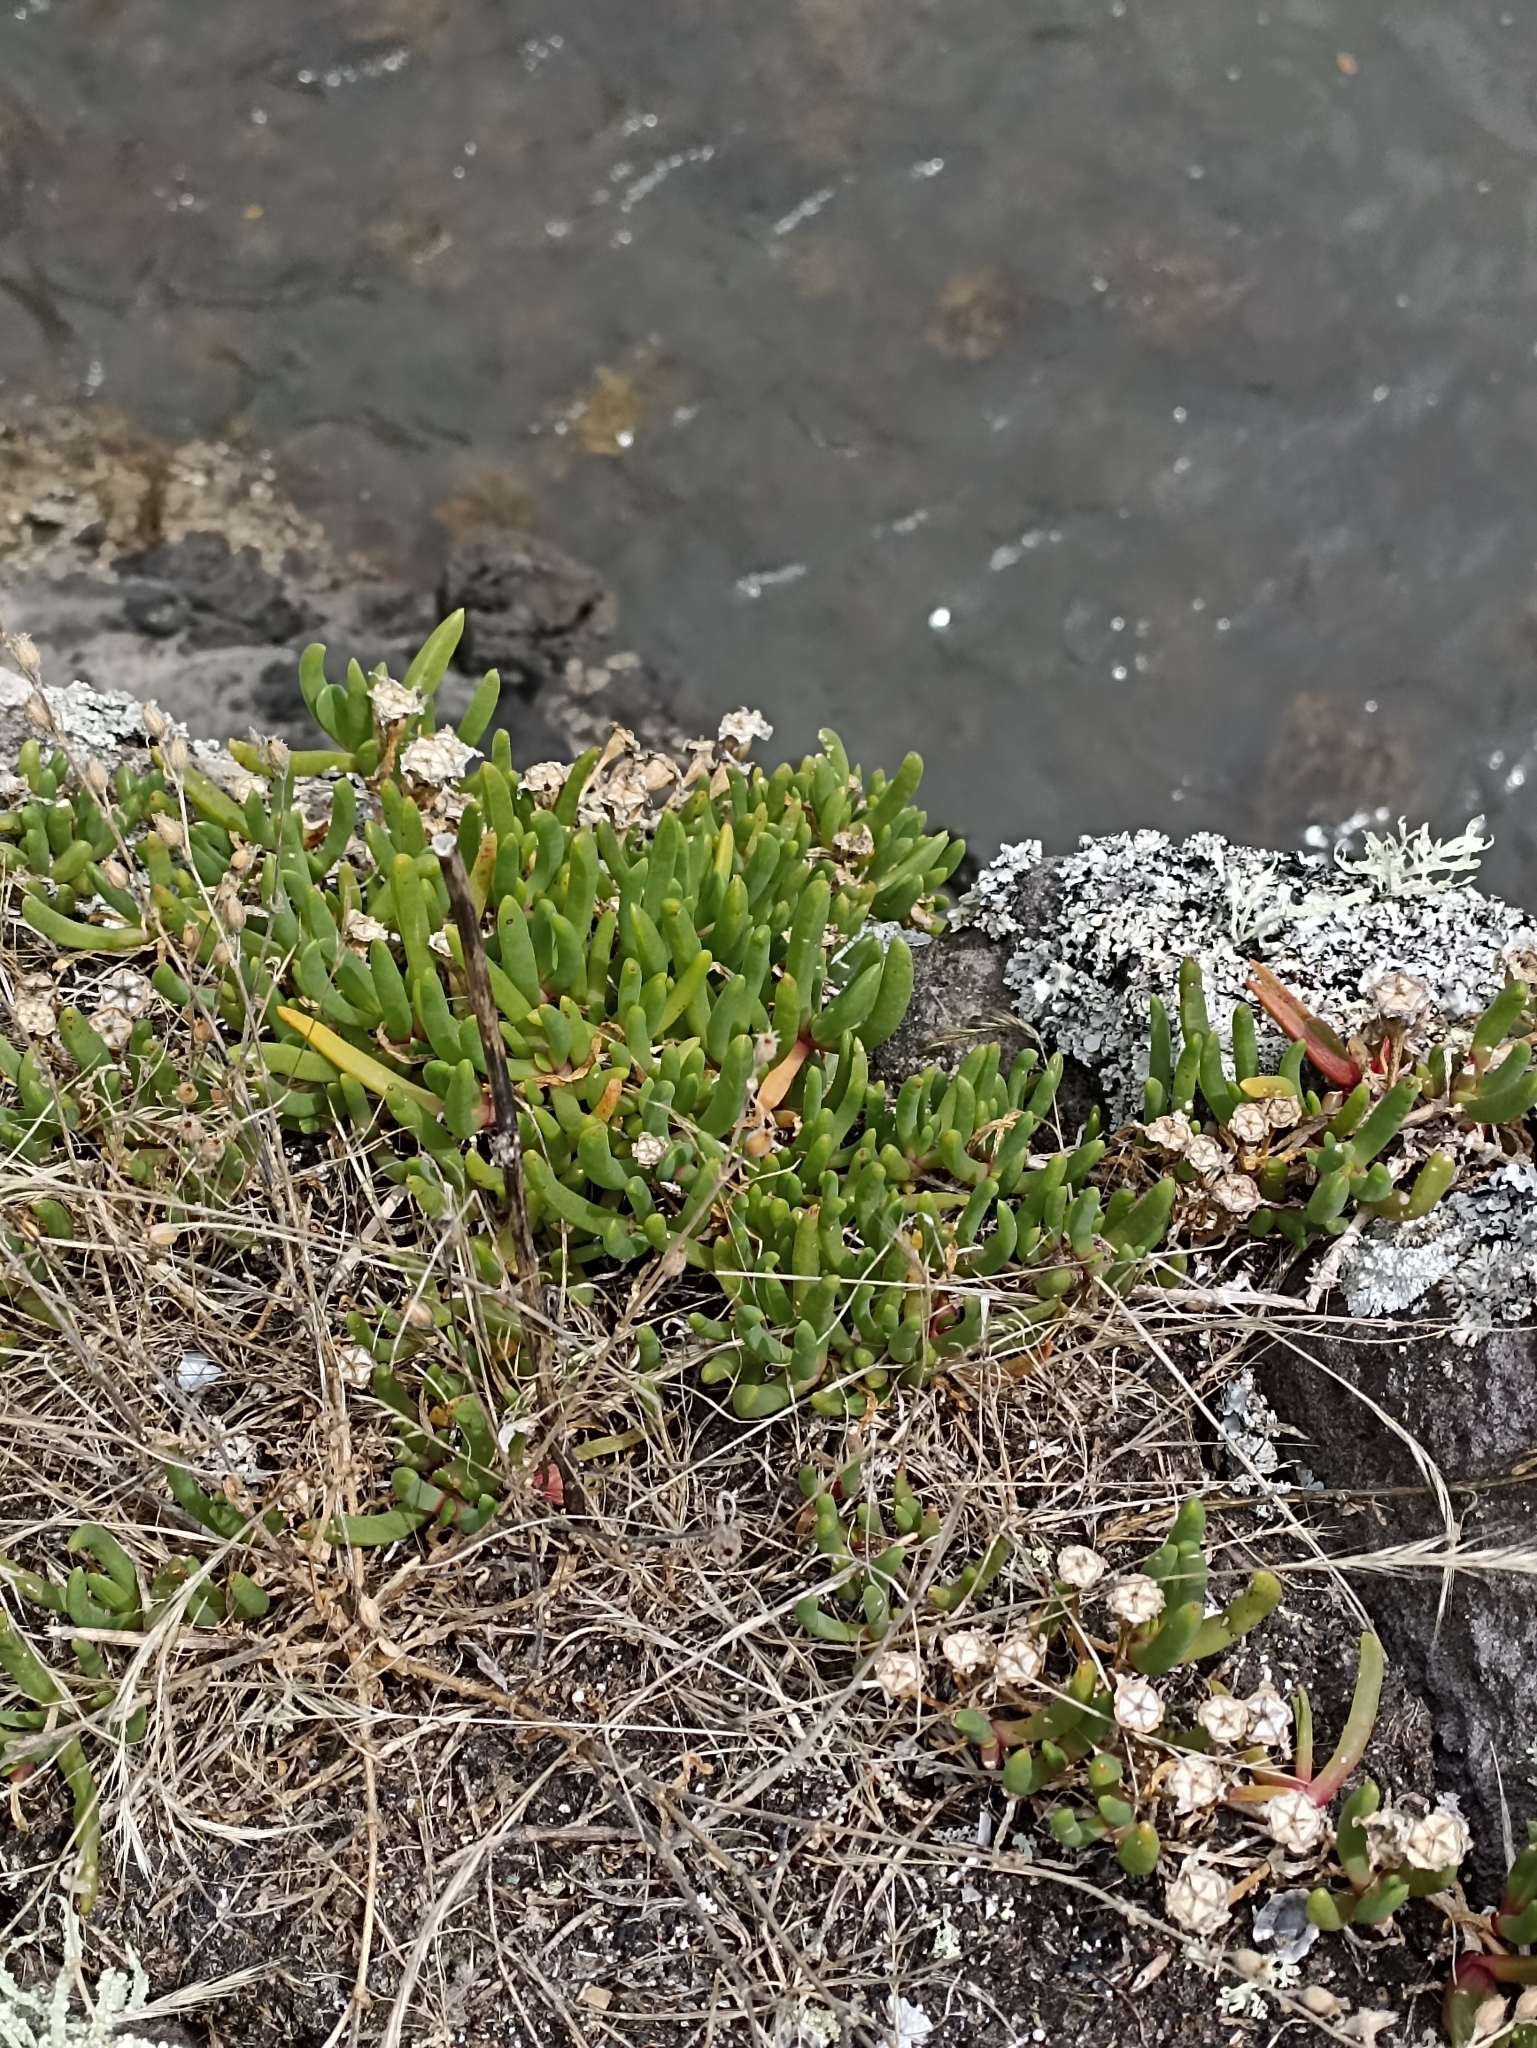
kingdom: Plantae
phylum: Tracheophyta
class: Magnoliopsida
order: Caryophyllales
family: Aizoaceae
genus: Disphyma
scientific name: Disphyma australe
